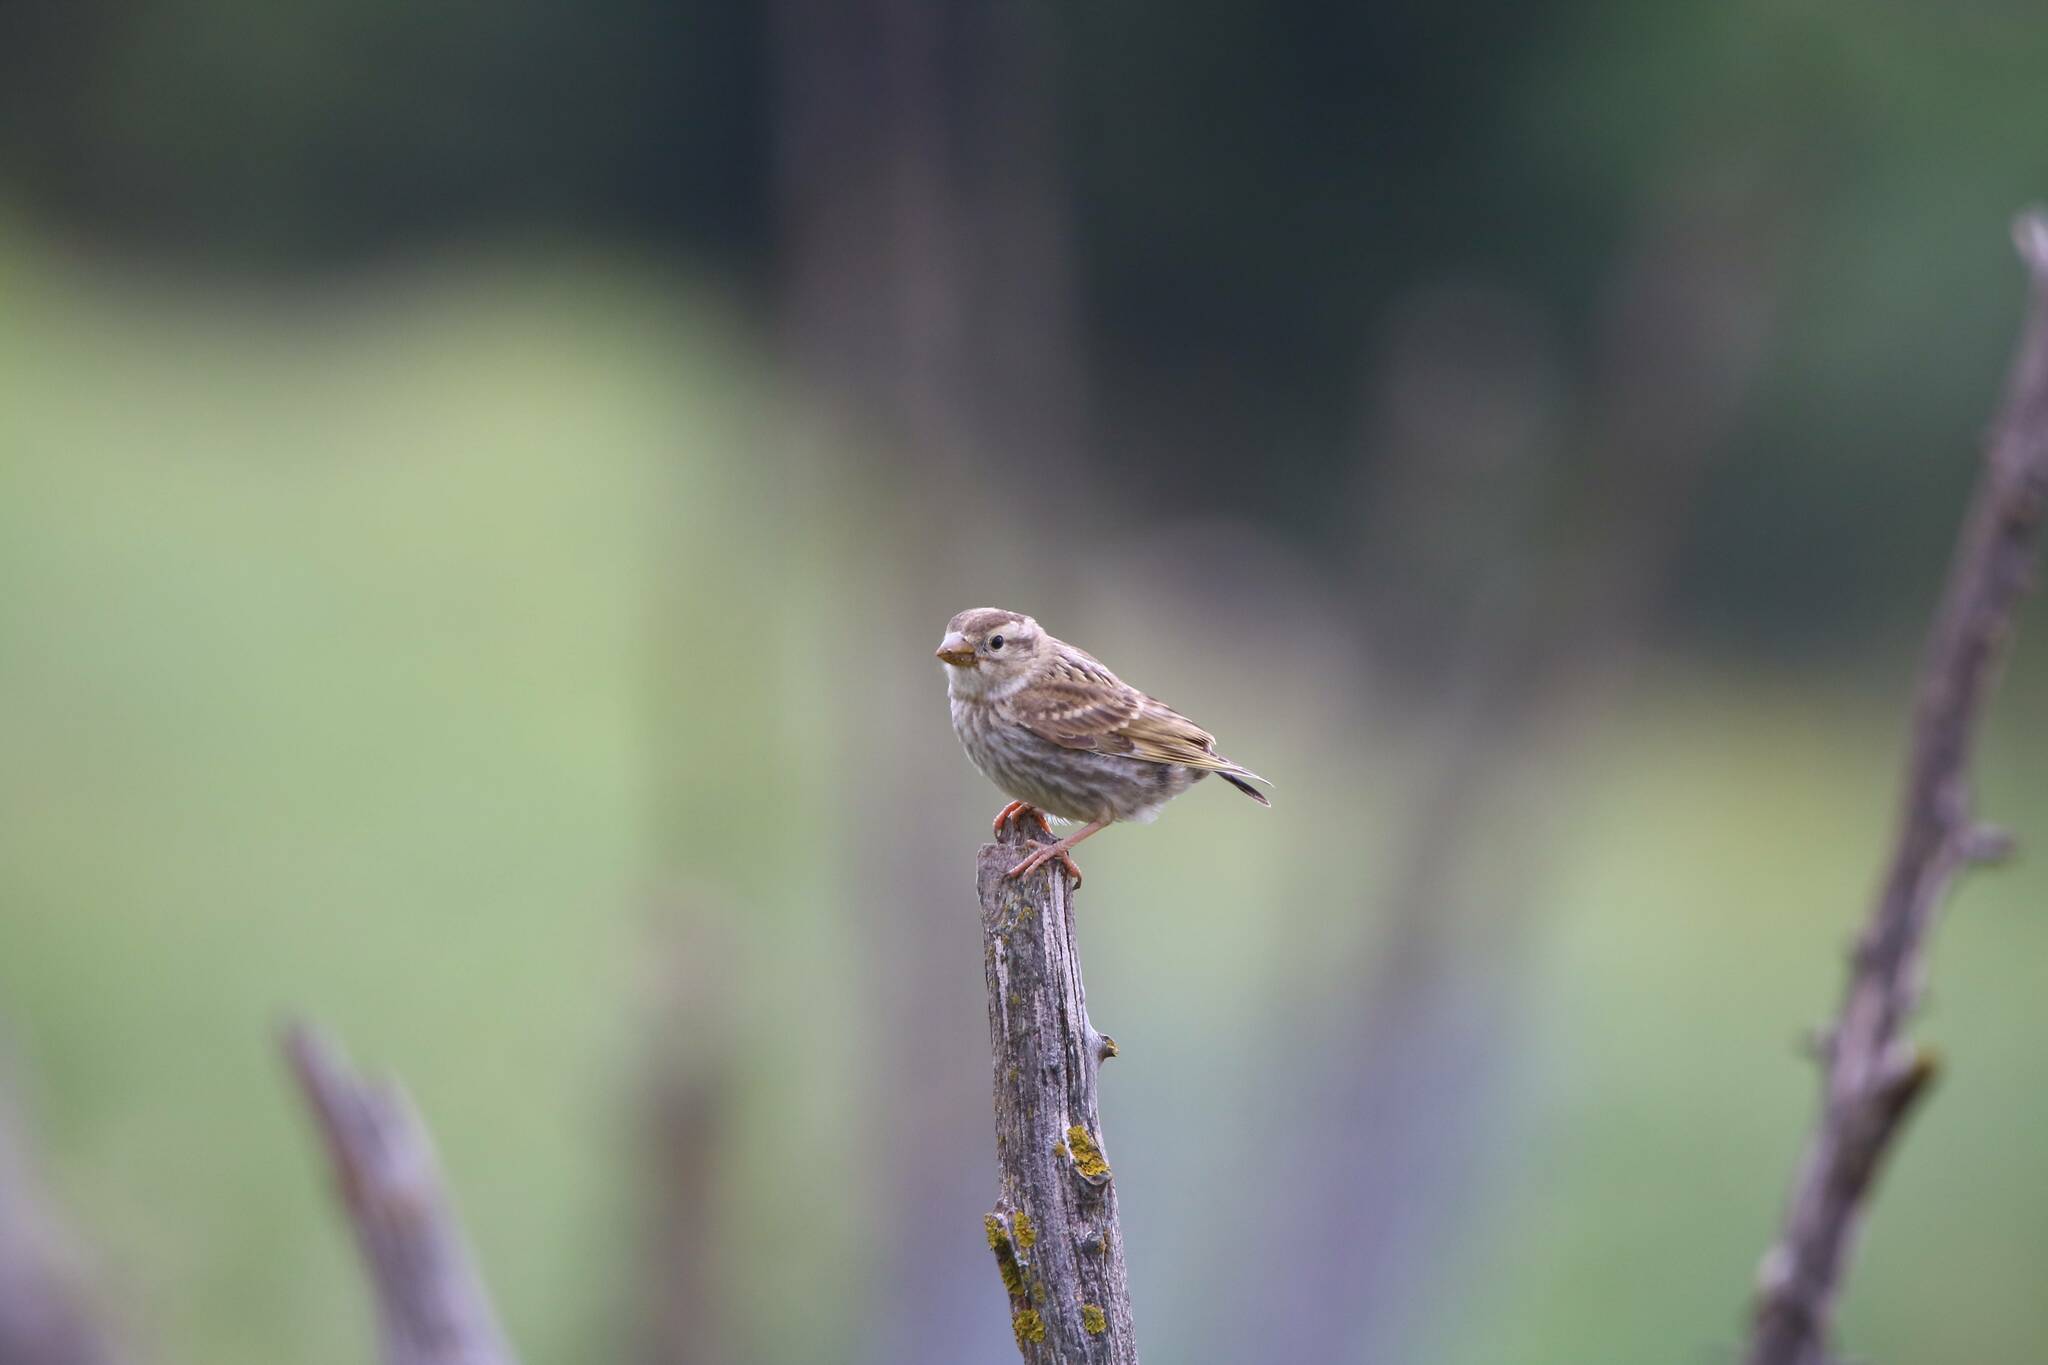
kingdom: Animalia
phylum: Chordata
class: Aves
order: Passeriformes
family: Passeridae
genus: Petronia
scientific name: Petronia petronia
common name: Rock sparrow
